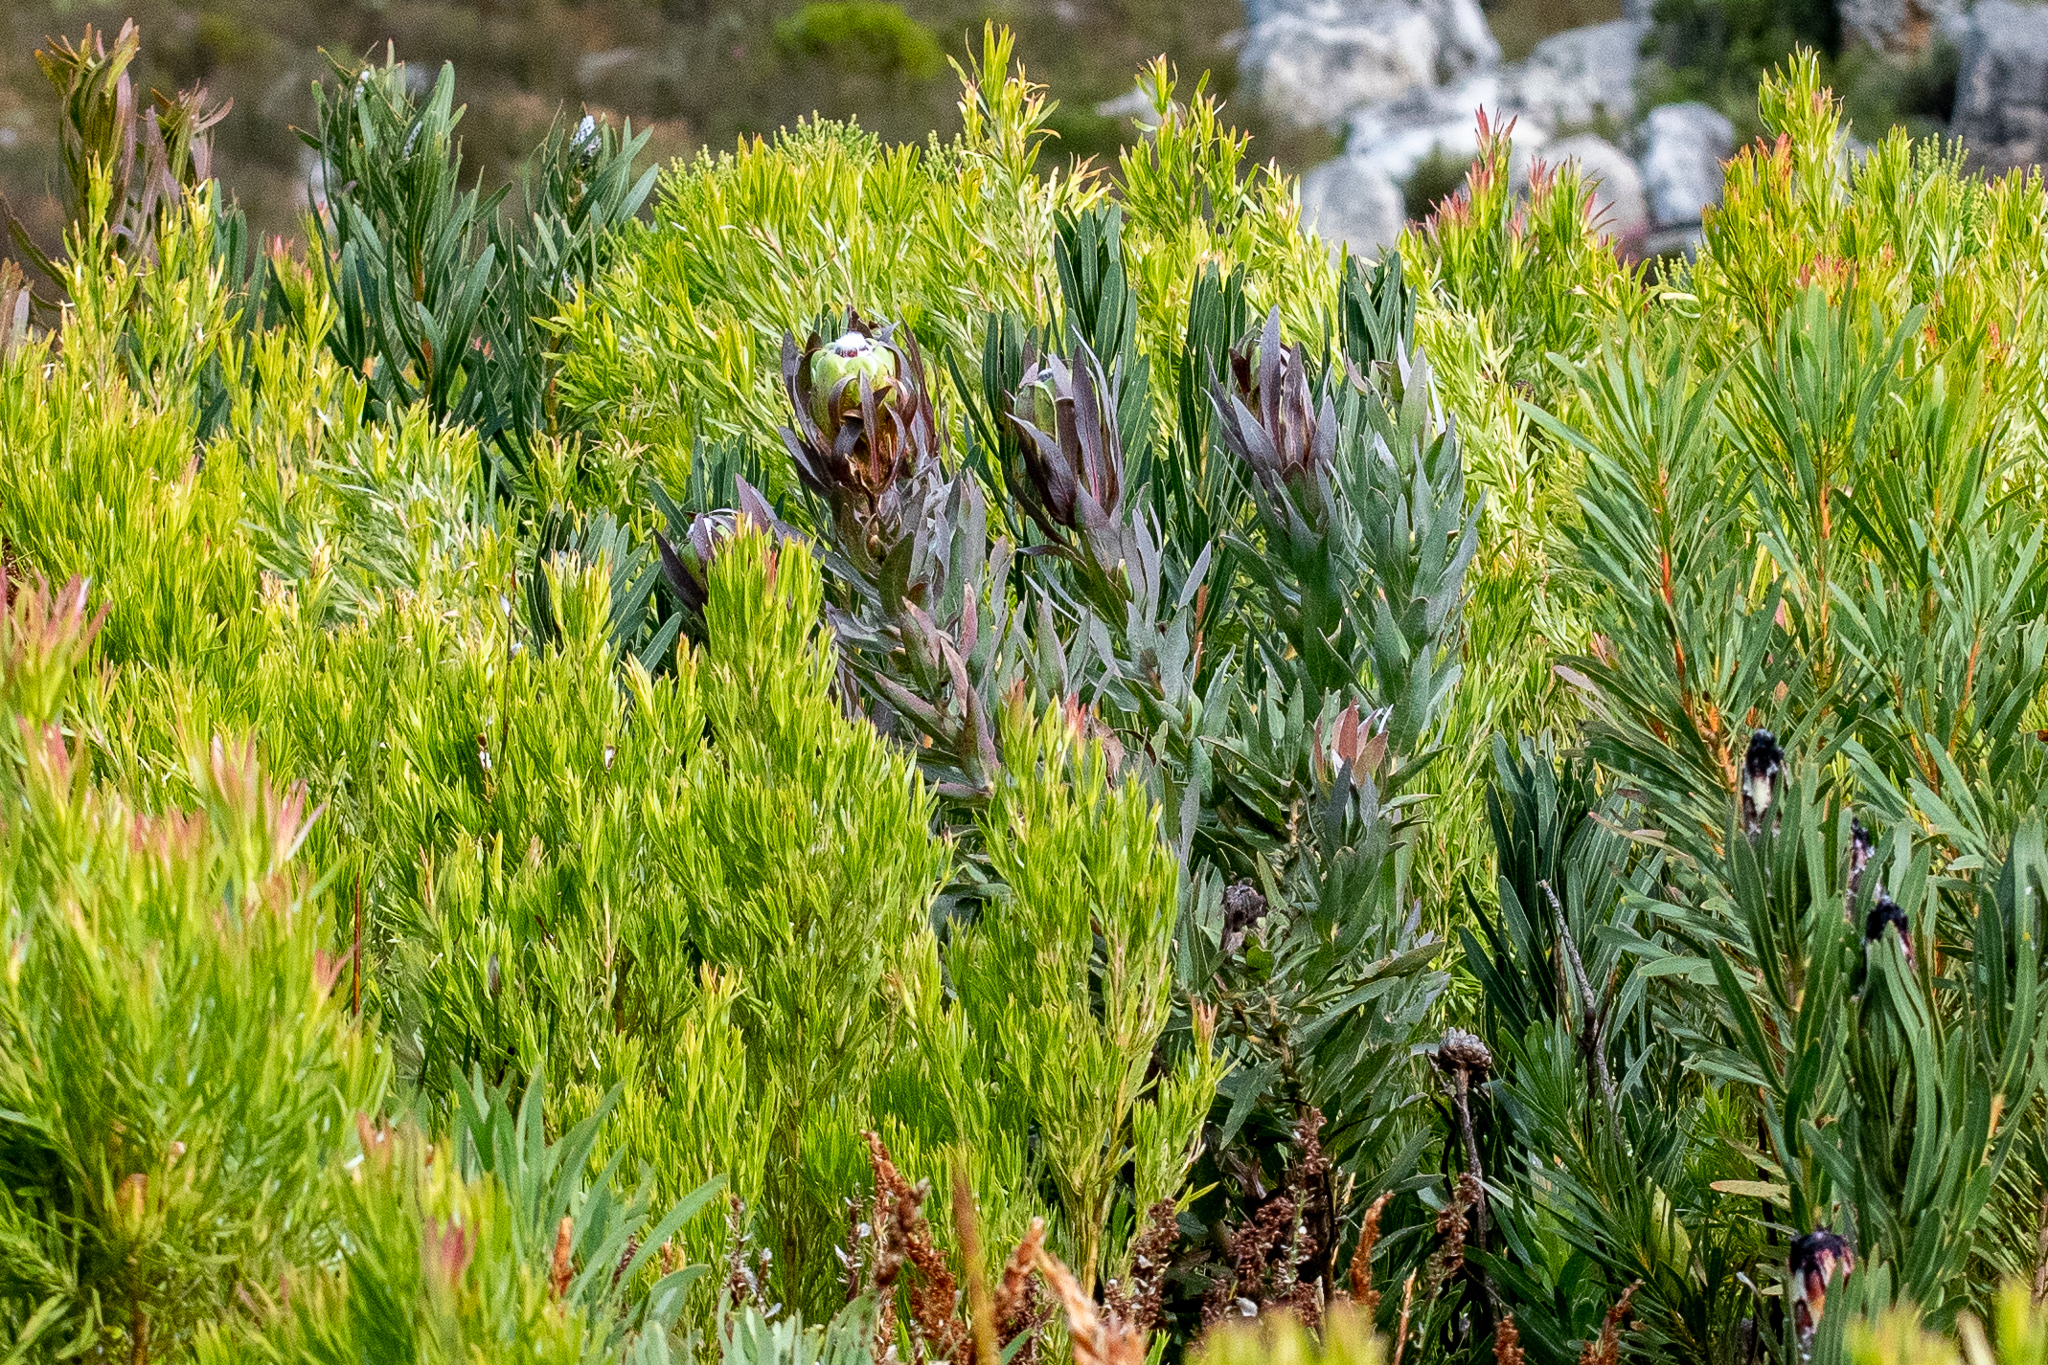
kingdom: Plantae
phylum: Tracheophyta
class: Magnoliopsida
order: Proteales
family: Proteaceae
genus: Protea
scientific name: Protea coronata
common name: Green sugarbush
